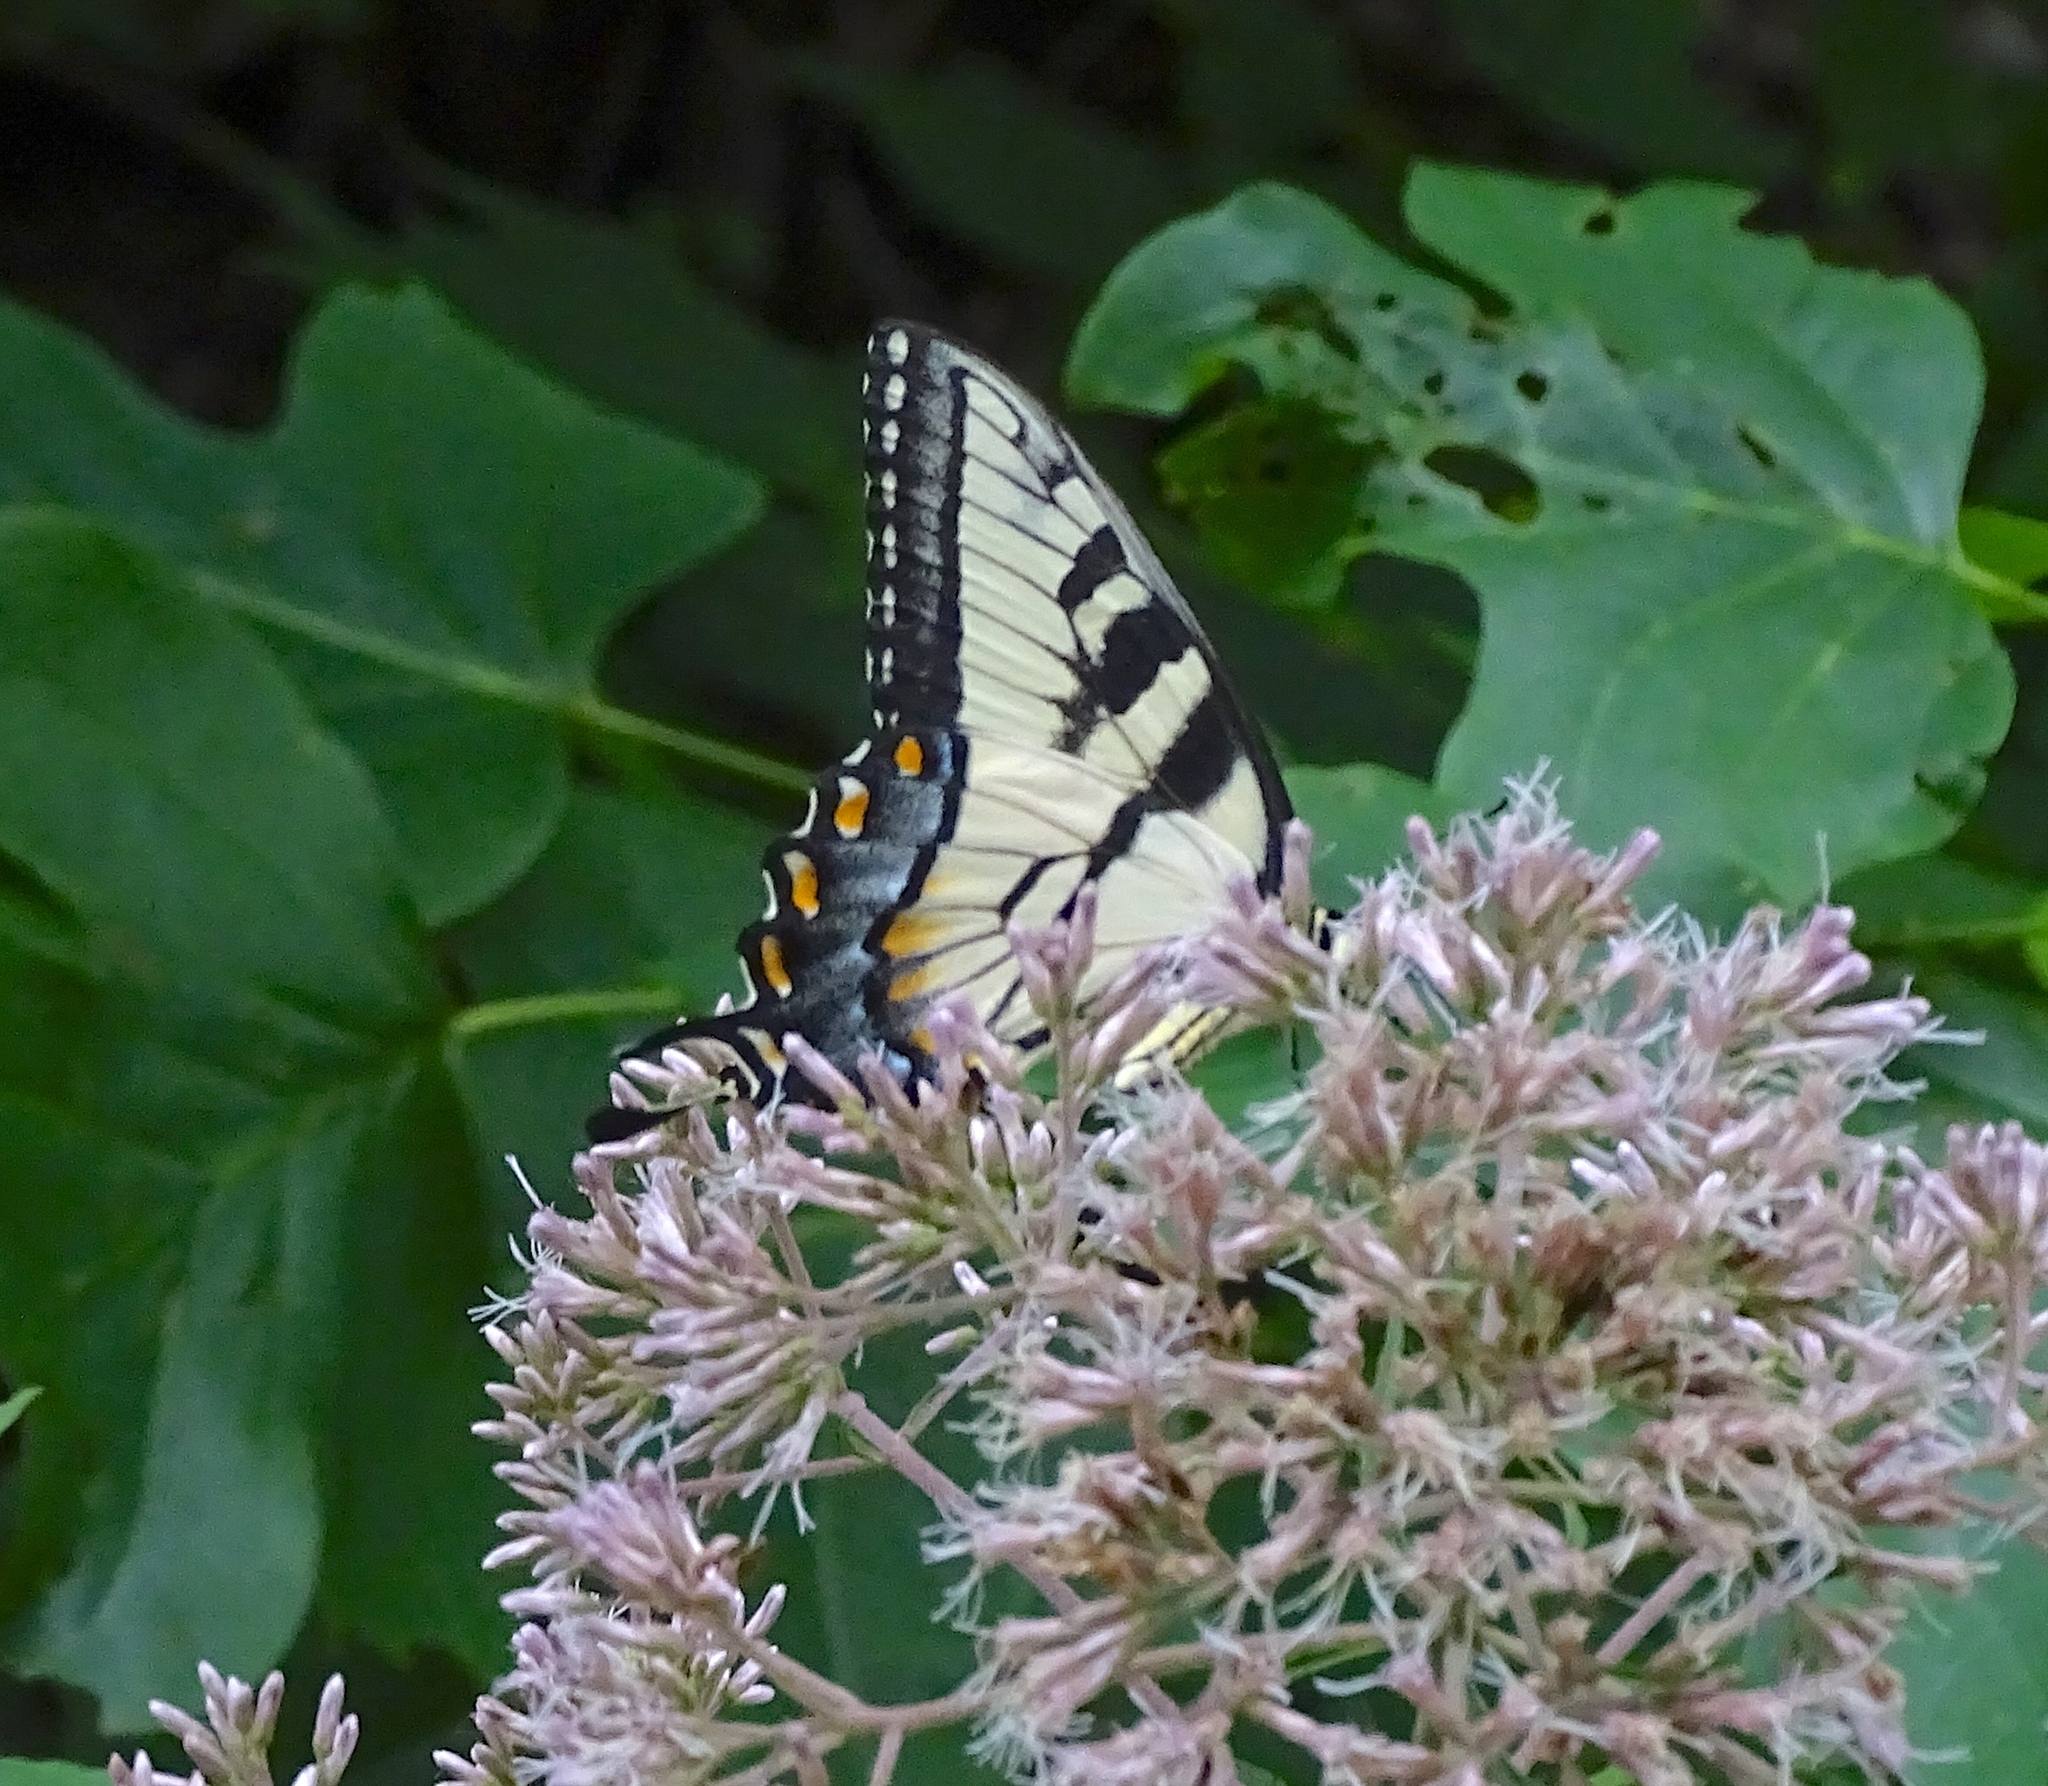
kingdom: Animalia
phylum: Arthropoda
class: Insecta
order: Lepidoptera
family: Papilionidae
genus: Papilio
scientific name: Papilio glaucus
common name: Tiger swallowtail
